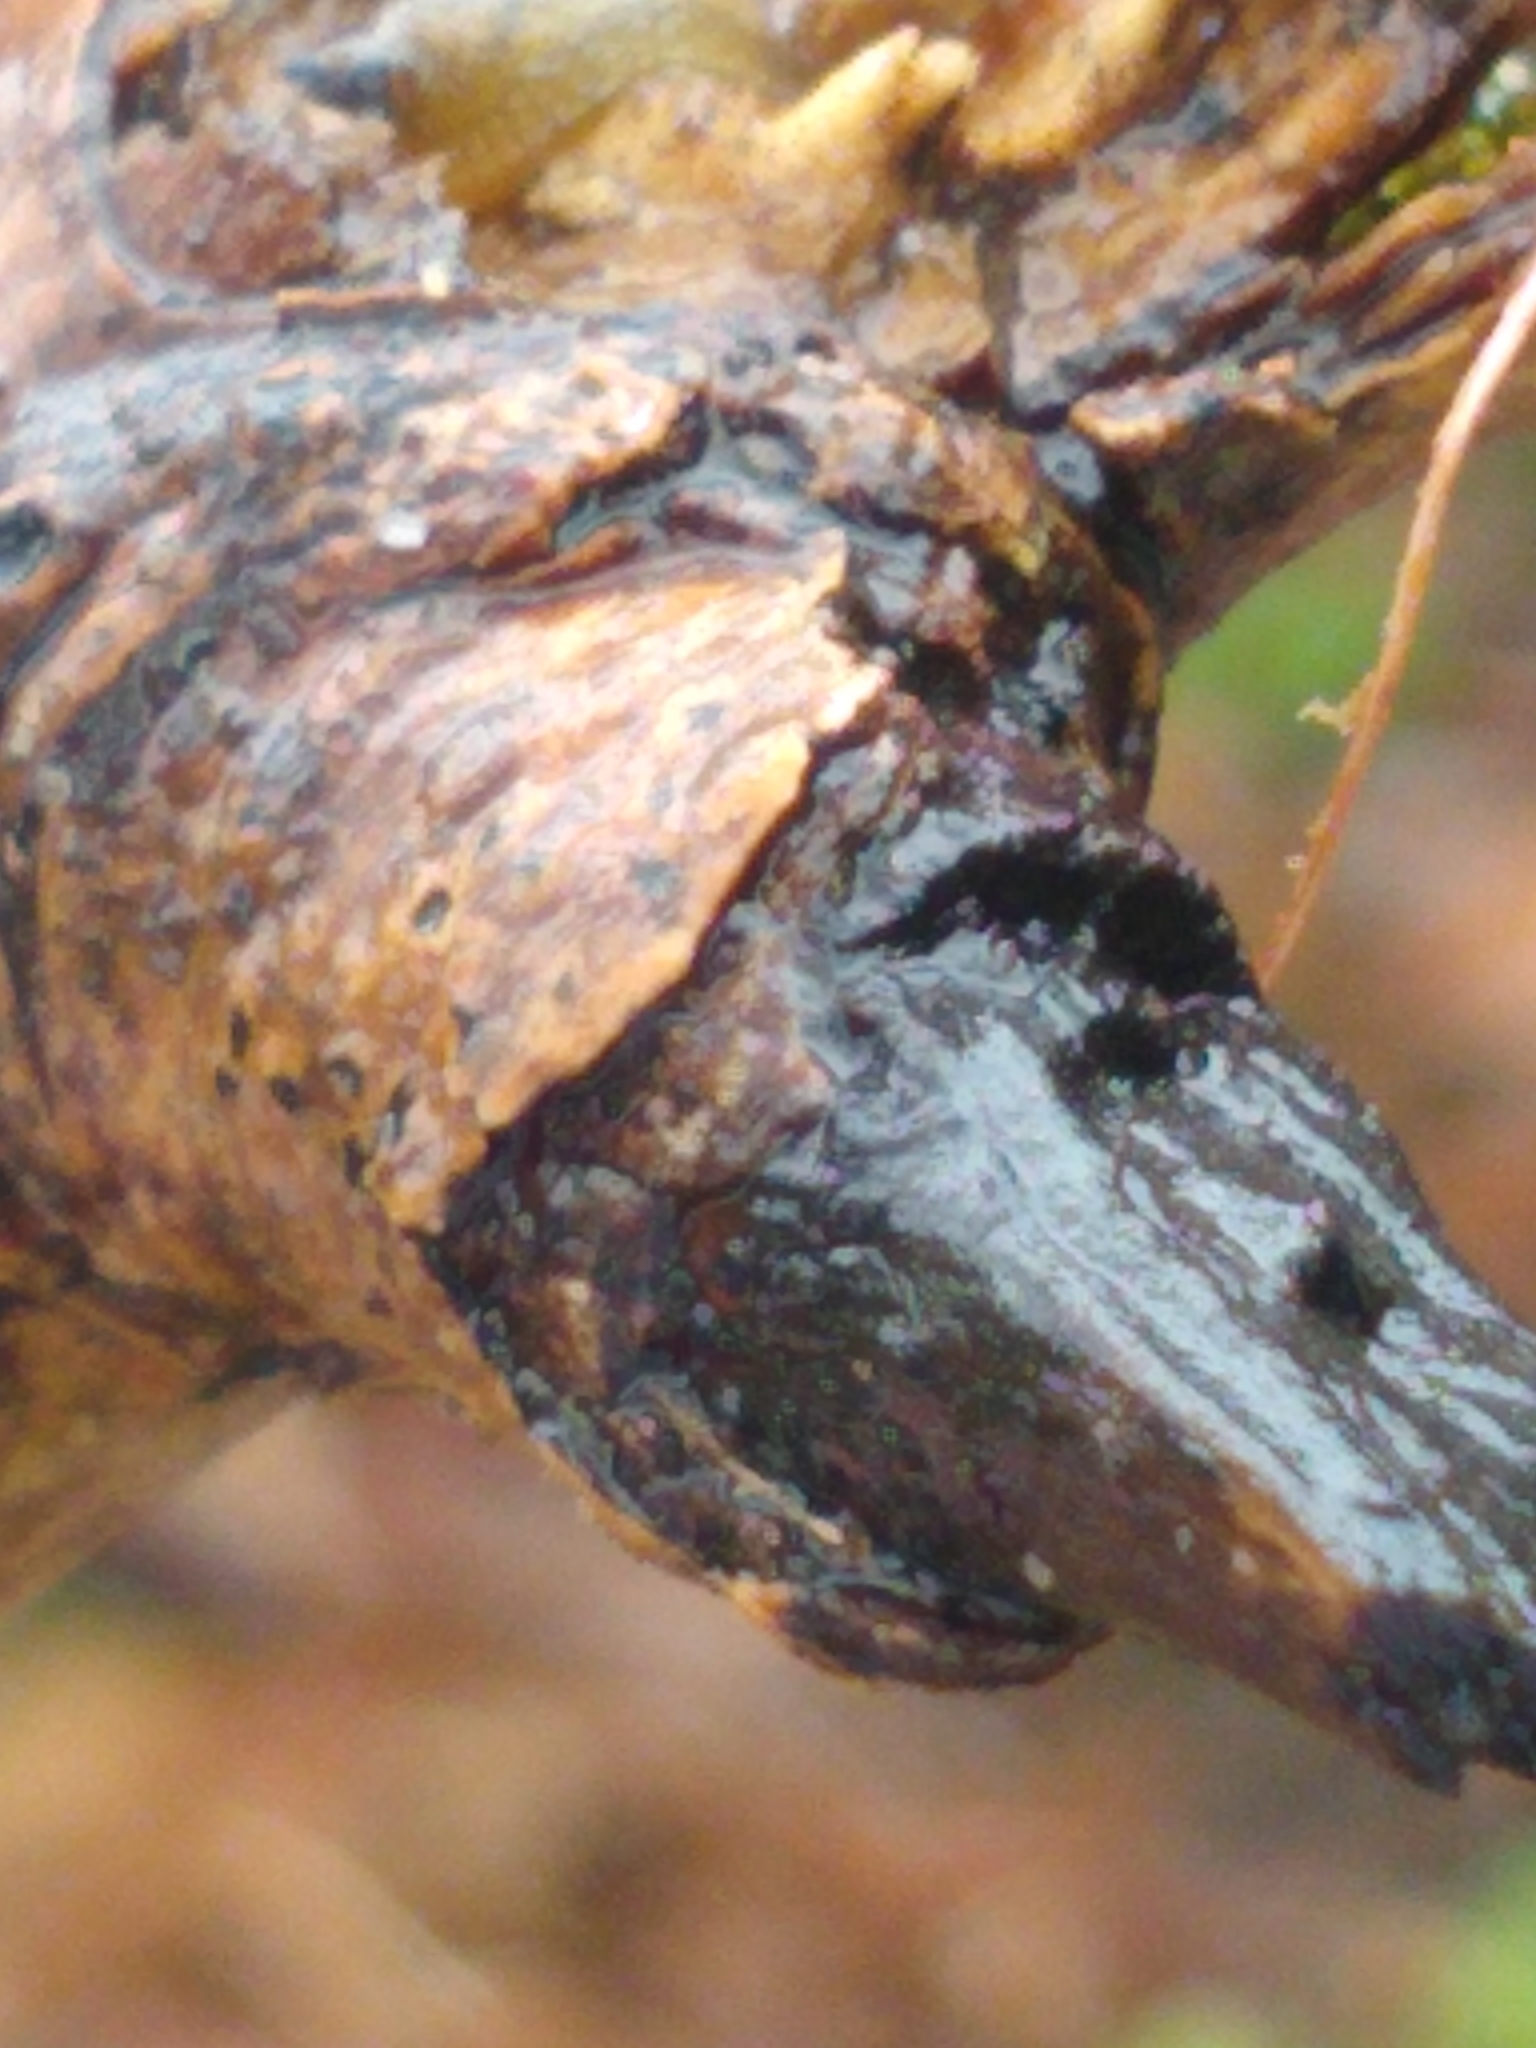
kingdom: Animalia
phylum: Mollusca
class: Gastropoda
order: Stylommatophora
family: Arionidae
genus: Arion
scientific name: Arion intermedius
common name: Hedgehog slug
